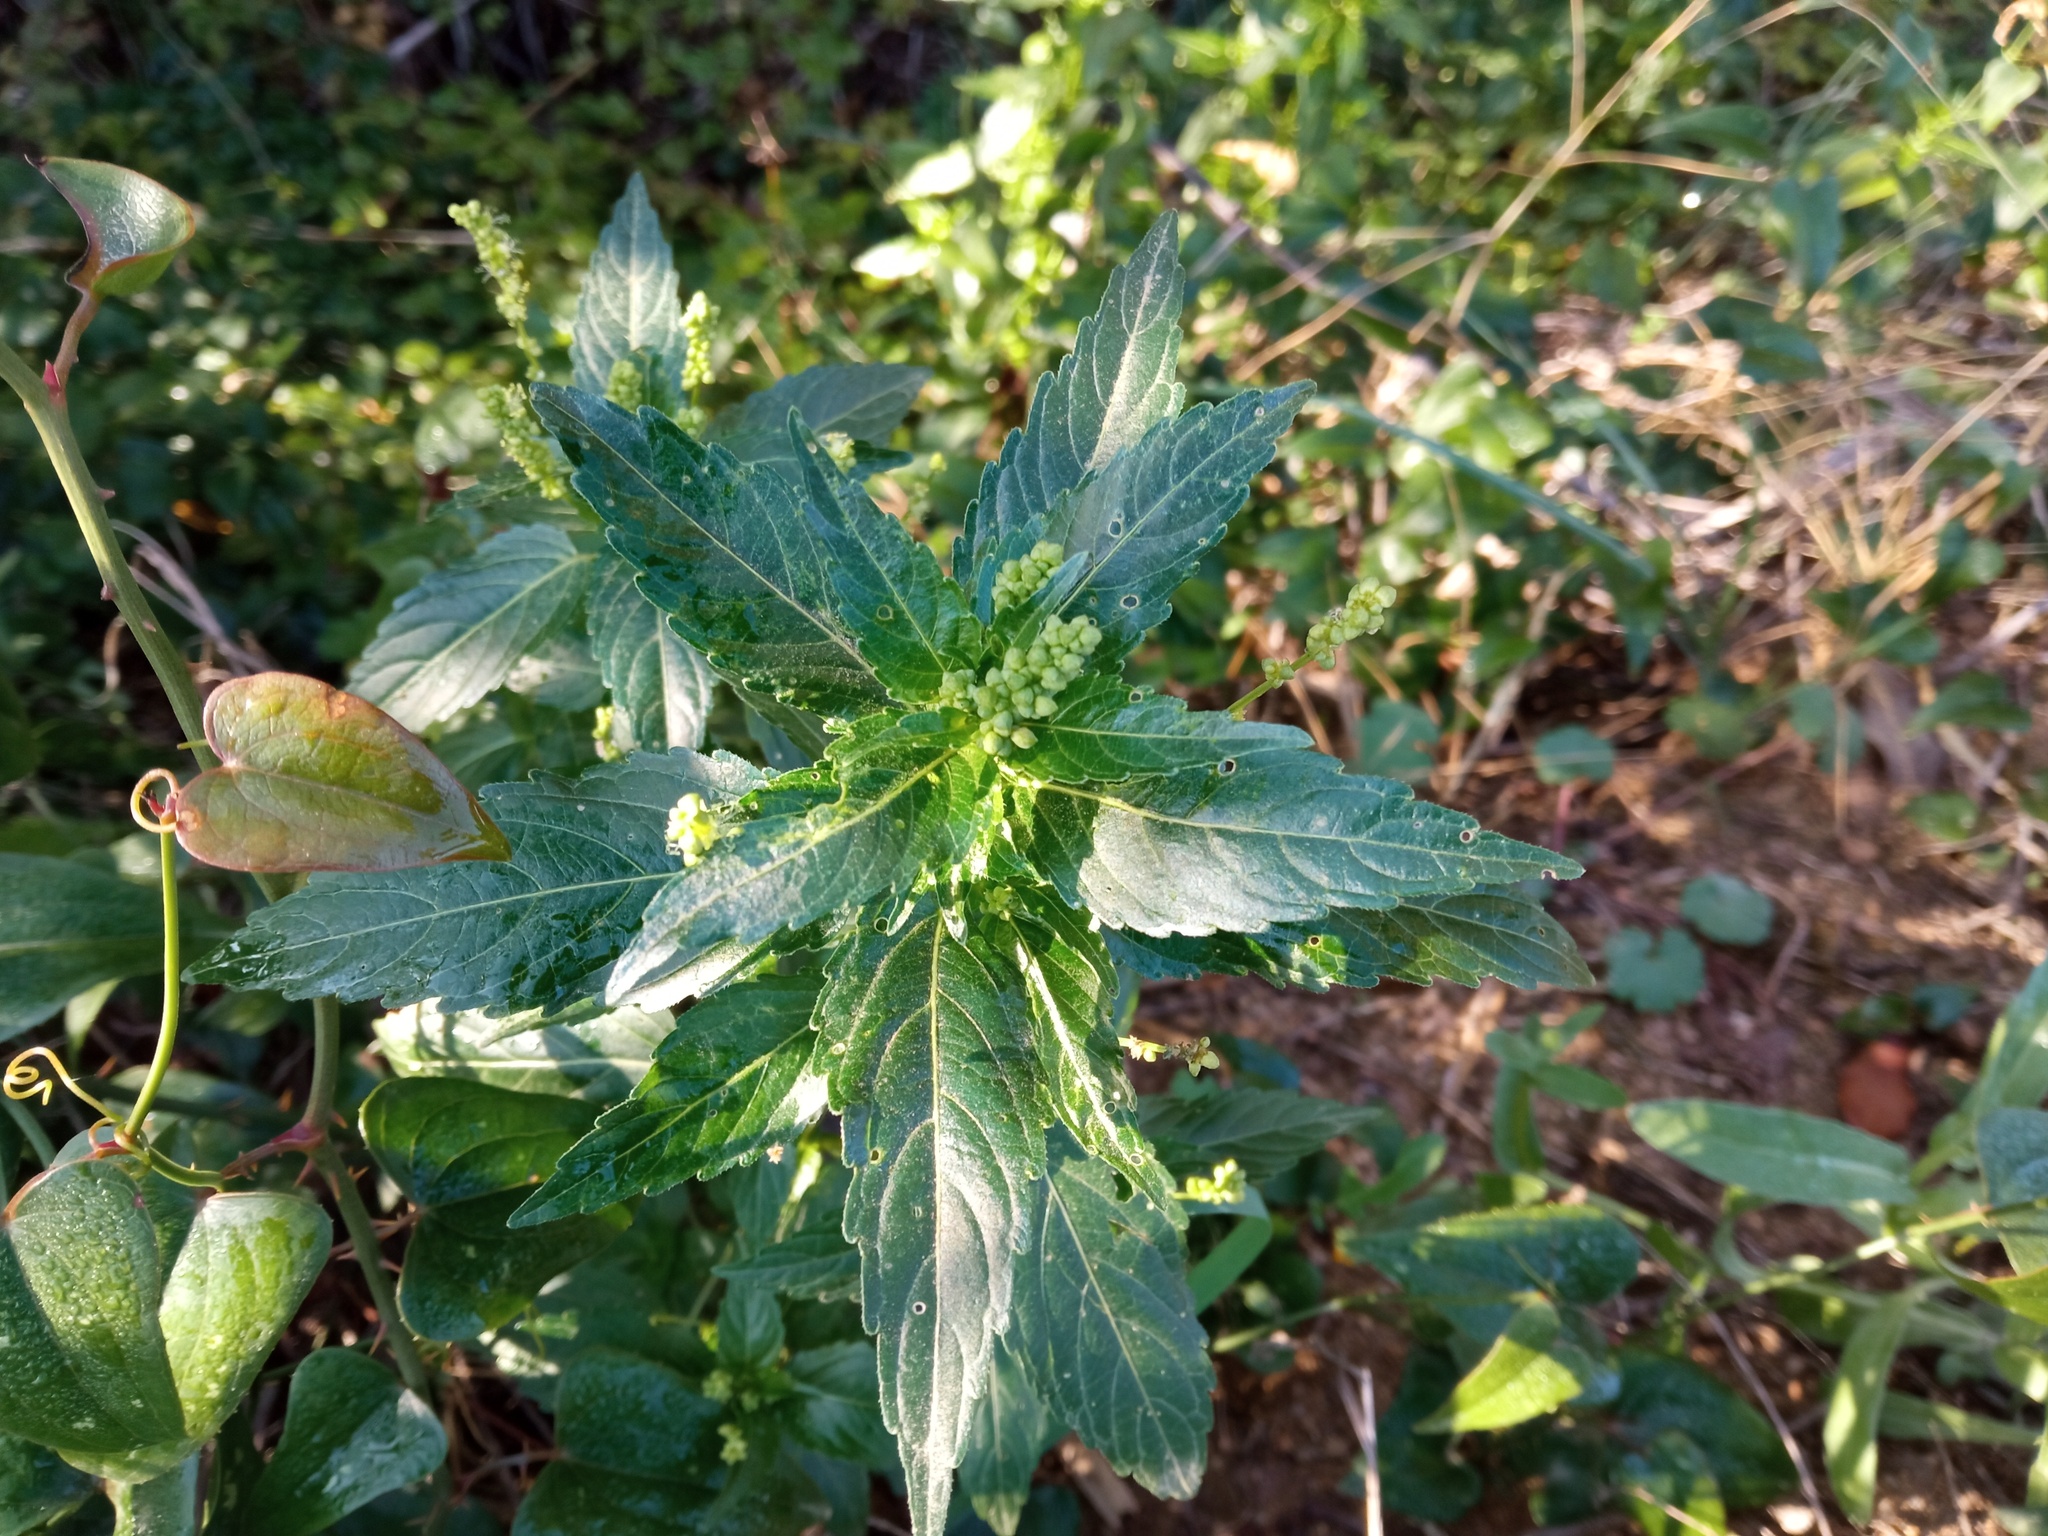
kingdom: Plantae
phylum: Tracheophyta
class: Magnoliopsida
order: Malpighiales
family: Euphorbiaceae
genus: Mercurialis
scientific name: Mercurialis annua
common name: Annual mercury
